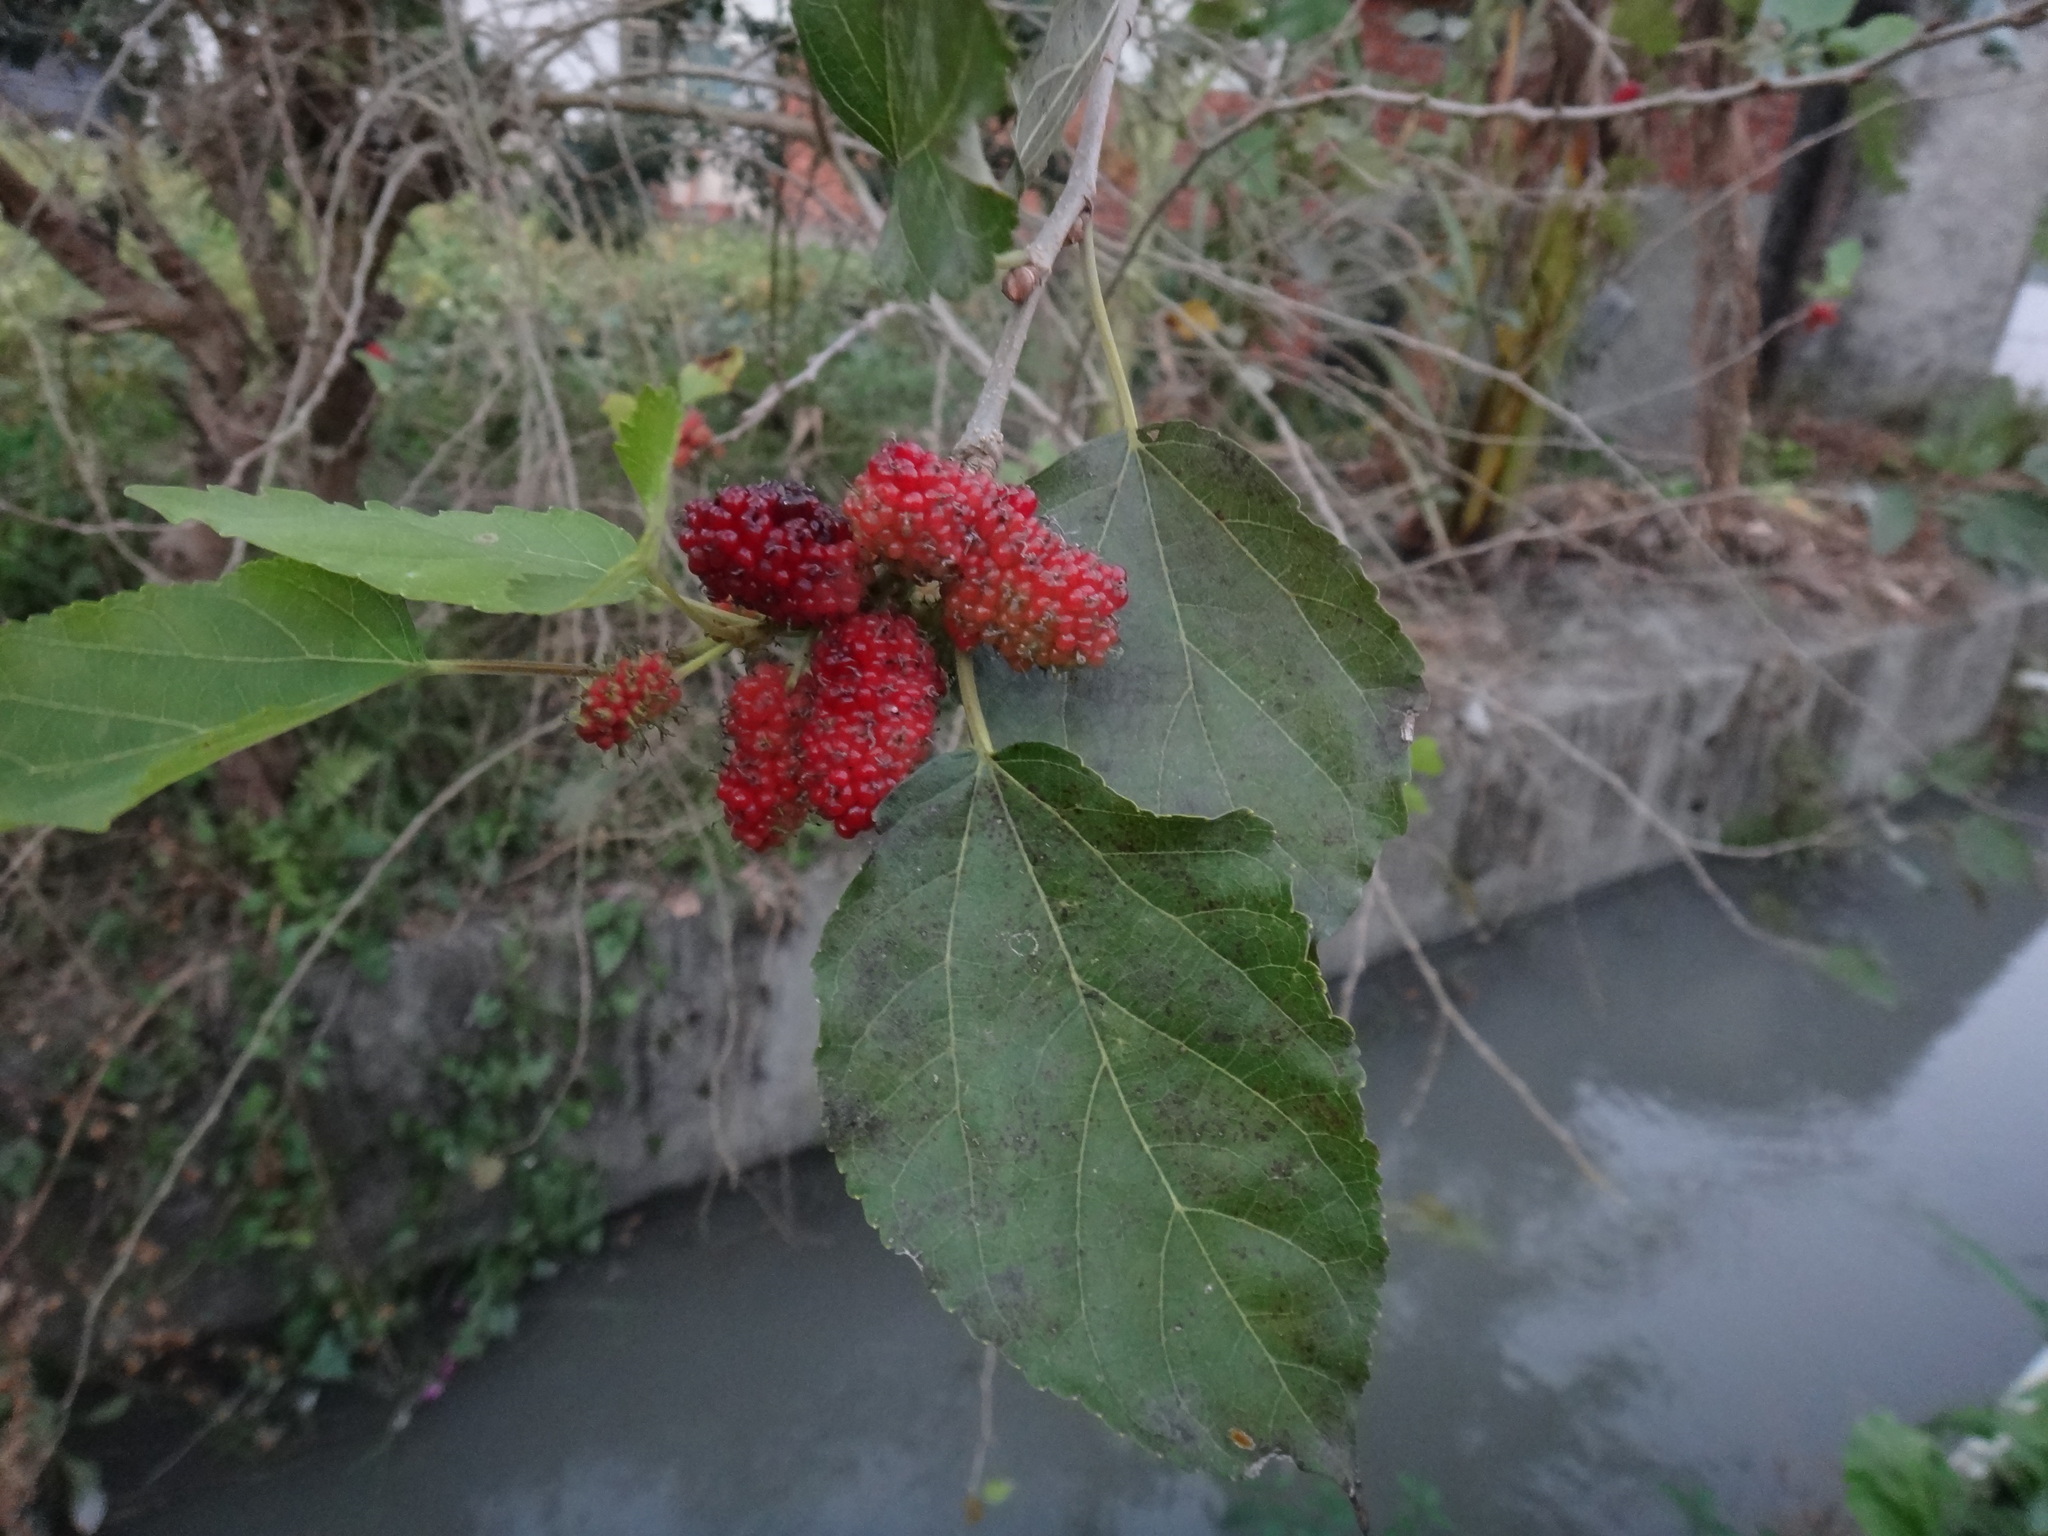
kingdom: Plantae
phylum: Tracheophyta
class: Magnoliopsida
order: Rosales
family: Moraceae
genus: Morus
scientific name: Morus indica
